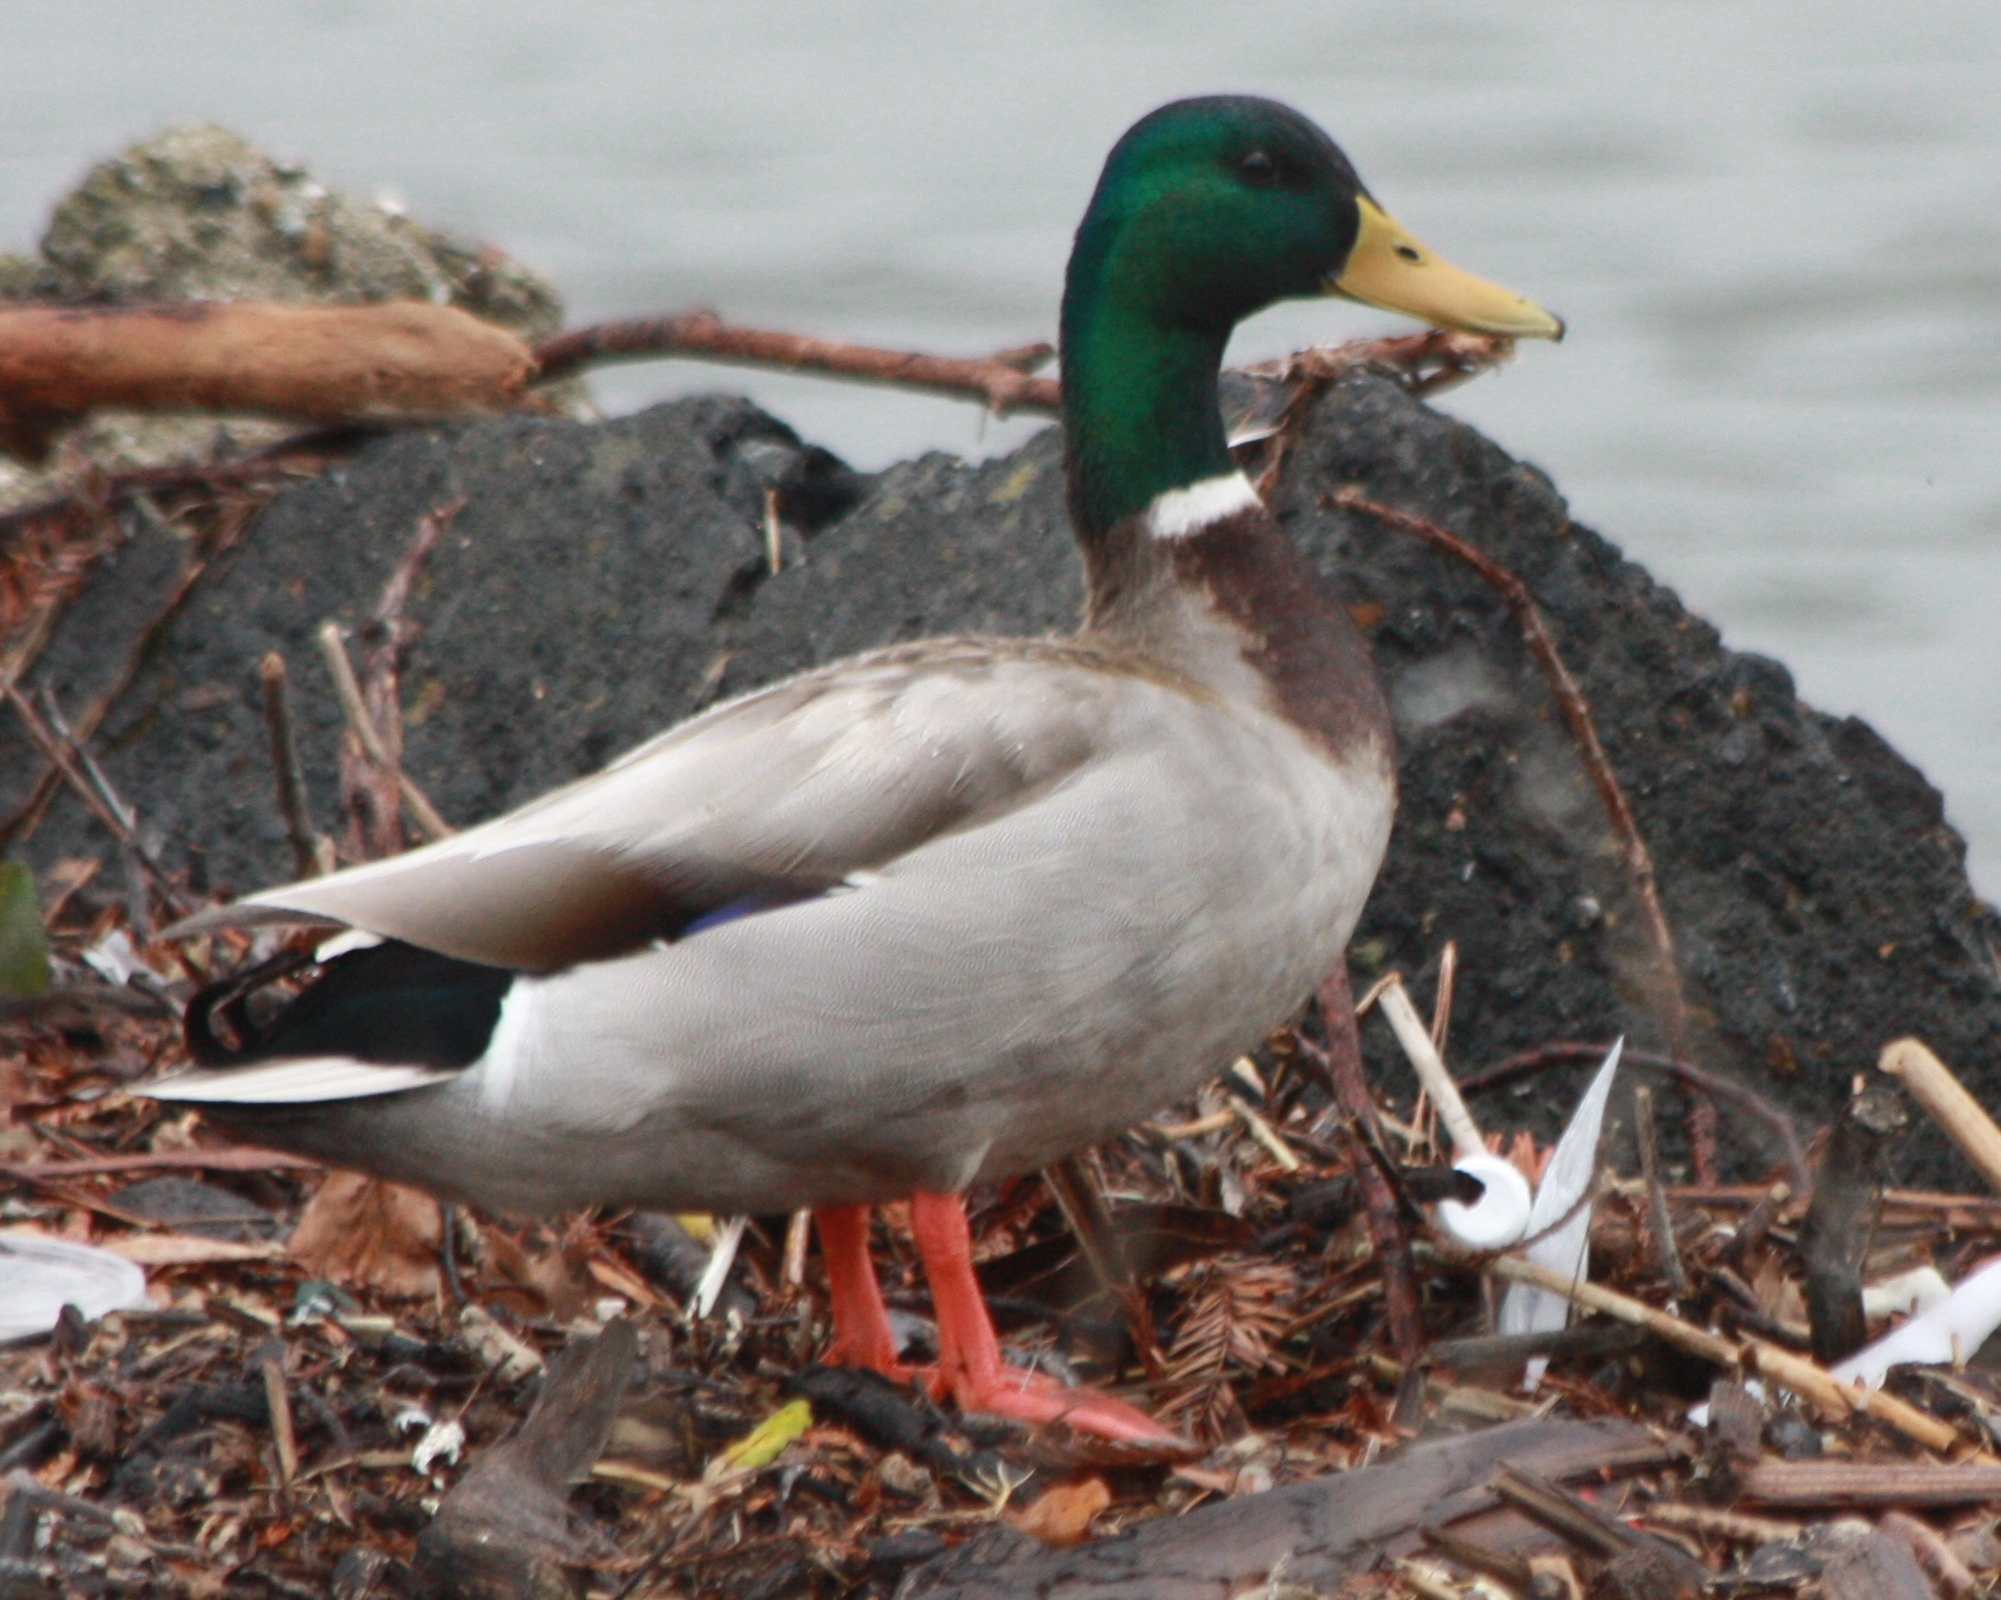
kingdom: Animalia
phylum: Chordata
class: Aves
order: Anseriformes
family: Anatidae
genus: Anas
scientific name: Anas platyrhynchos
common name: Mallard
